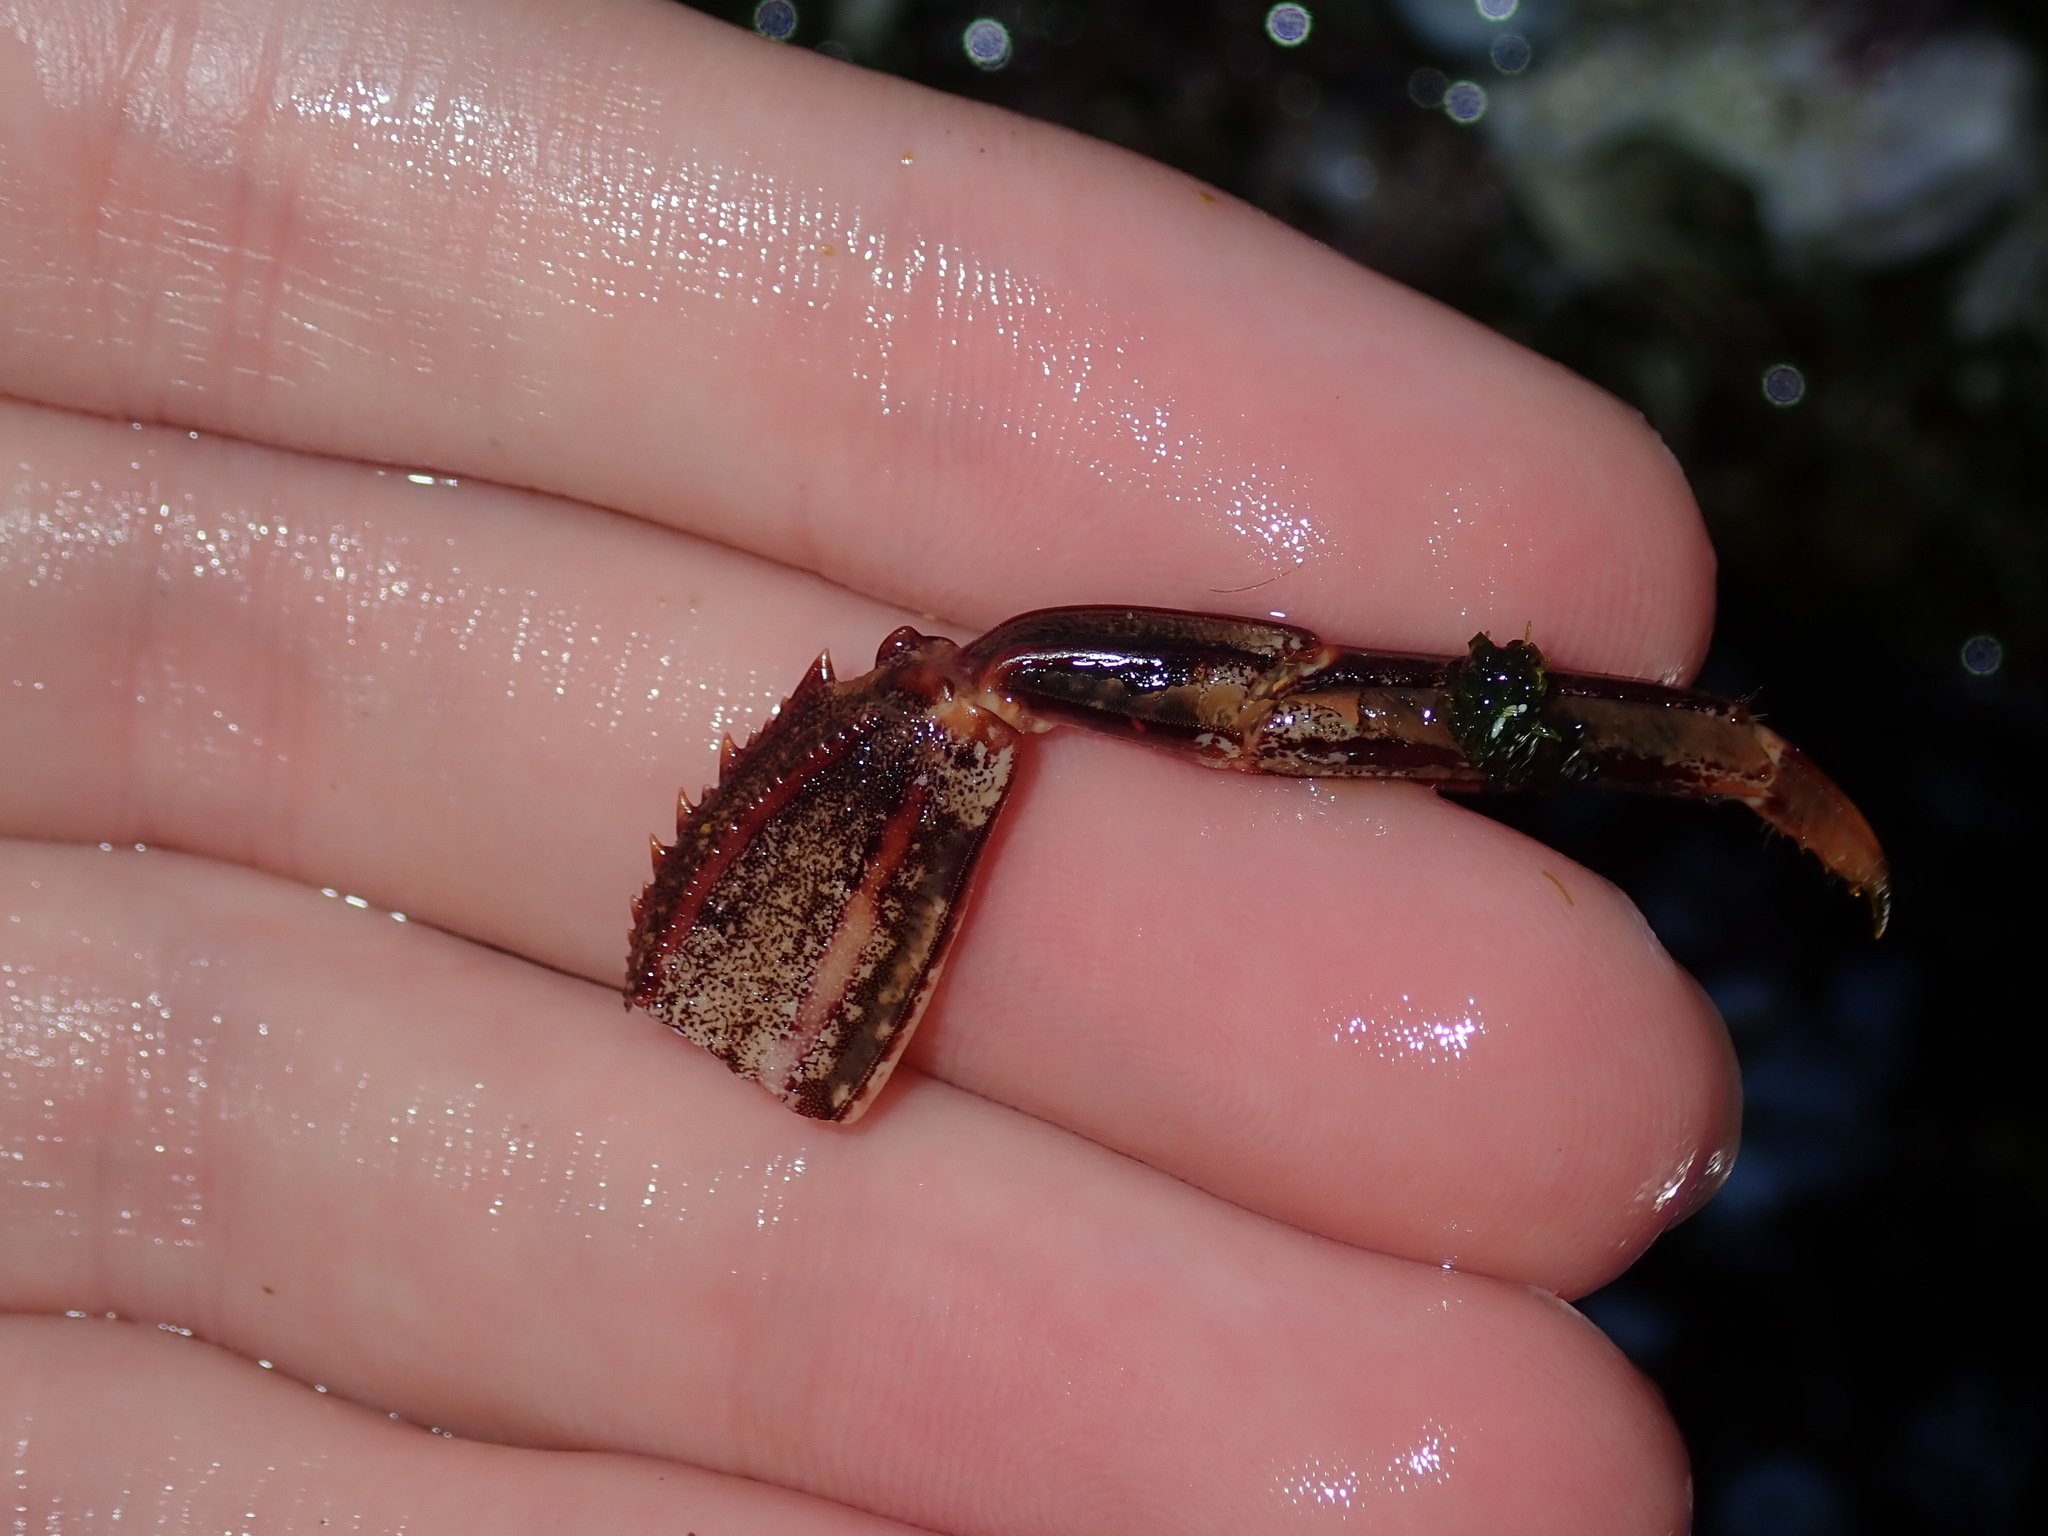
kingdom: Animalia
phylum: Arthropoda
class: Malacostraca
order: Decapoda
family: Plagusiidae
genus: Guinusia
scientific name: Guinusia chabrus
